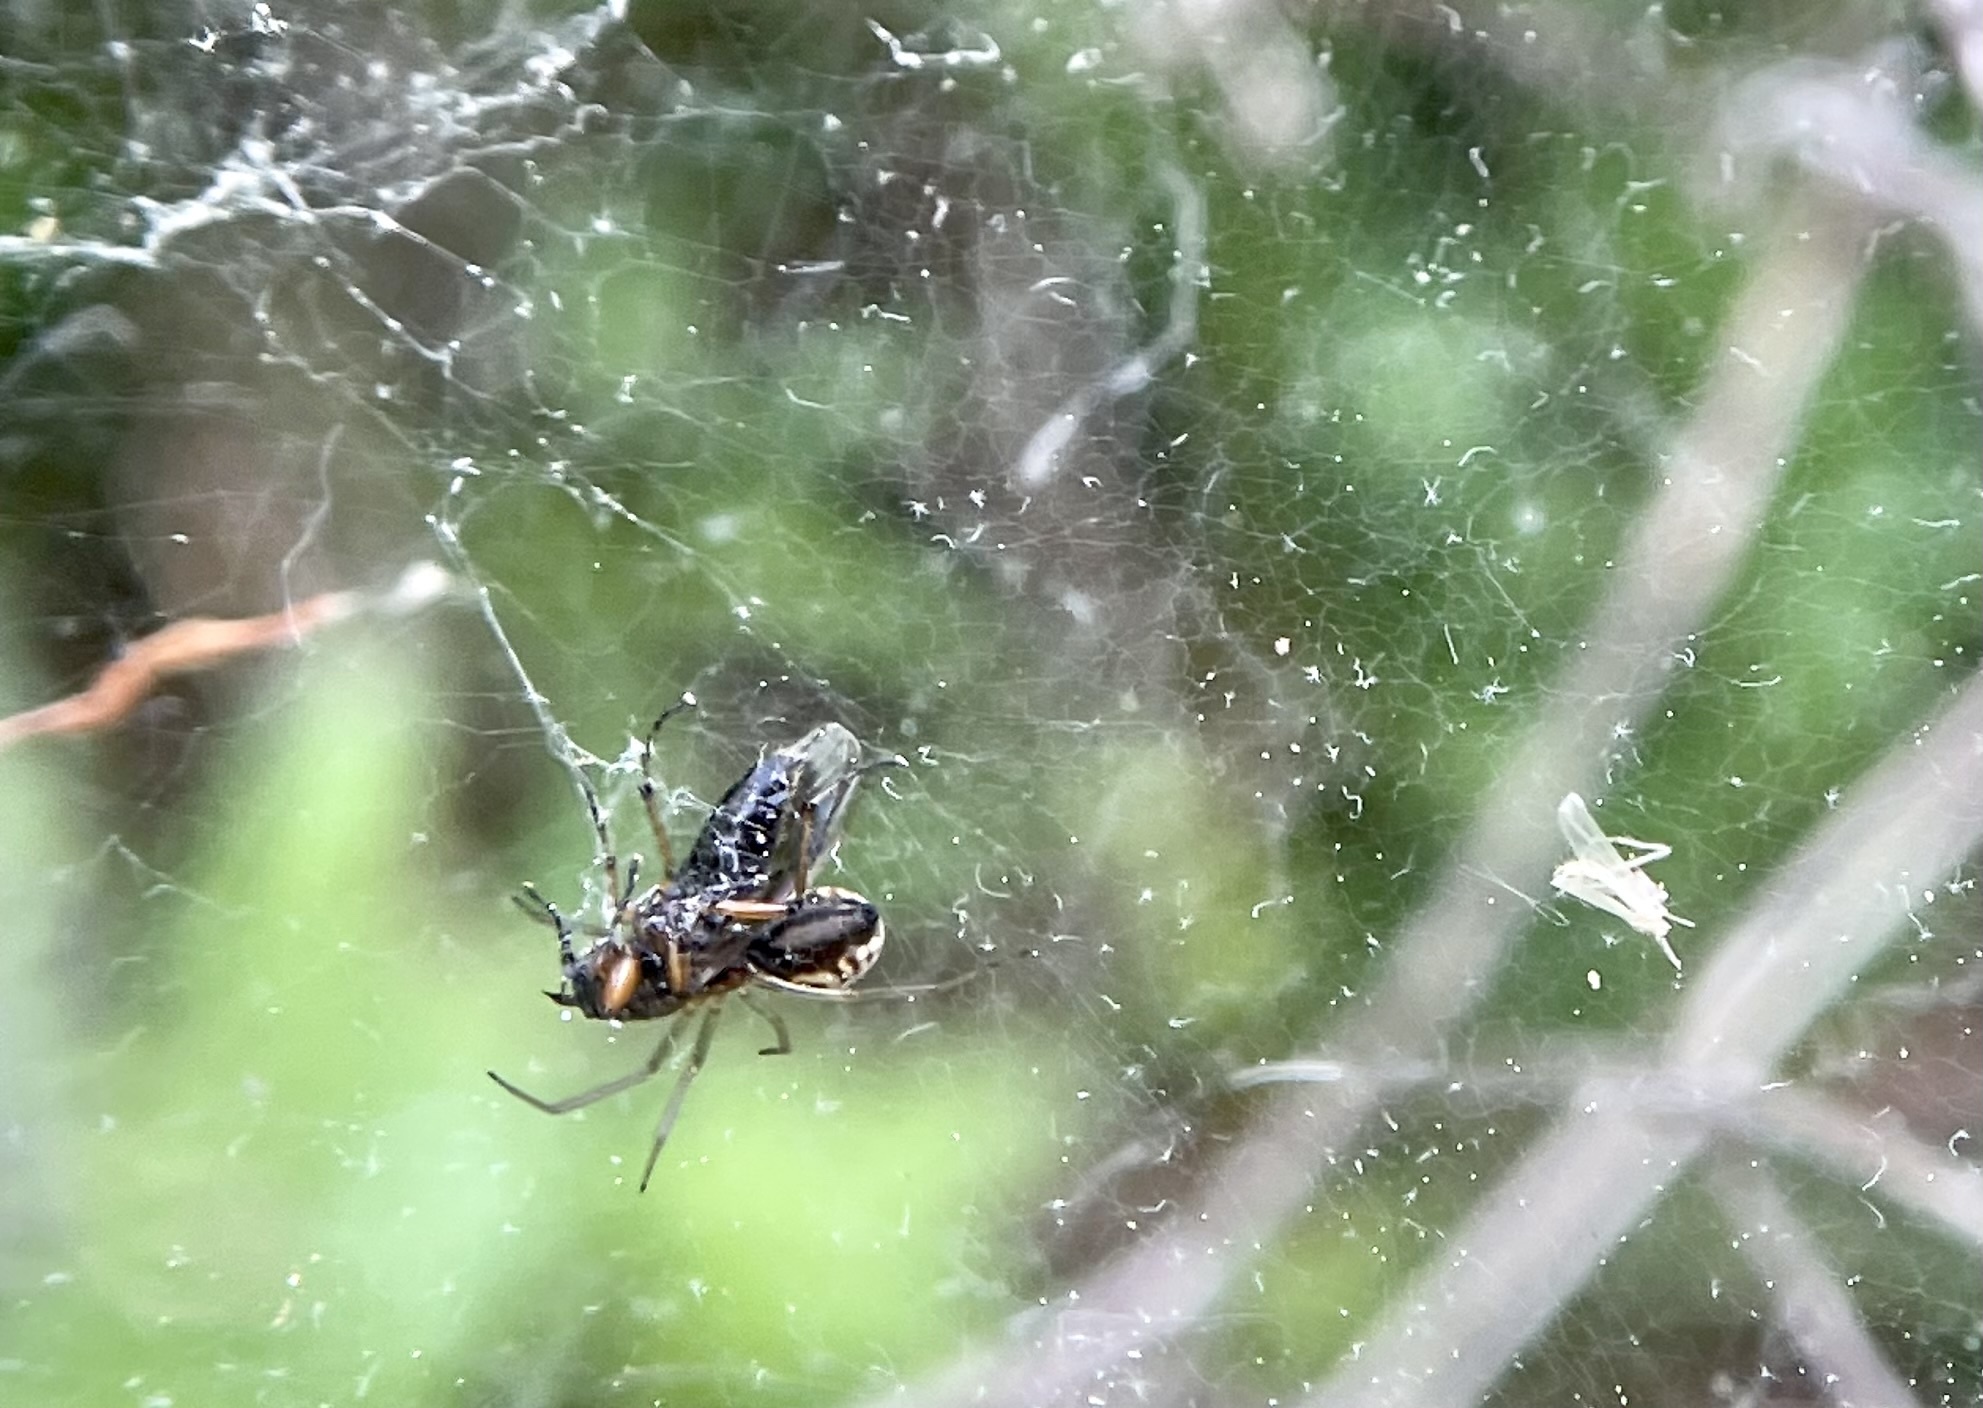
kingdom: Animalia
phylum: Arthropoda
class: Arachnida
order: Araneae
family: Linyphiidae
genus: Frontinella
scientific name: Frontinella pyramitela
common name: Bowl-and-doily spider
